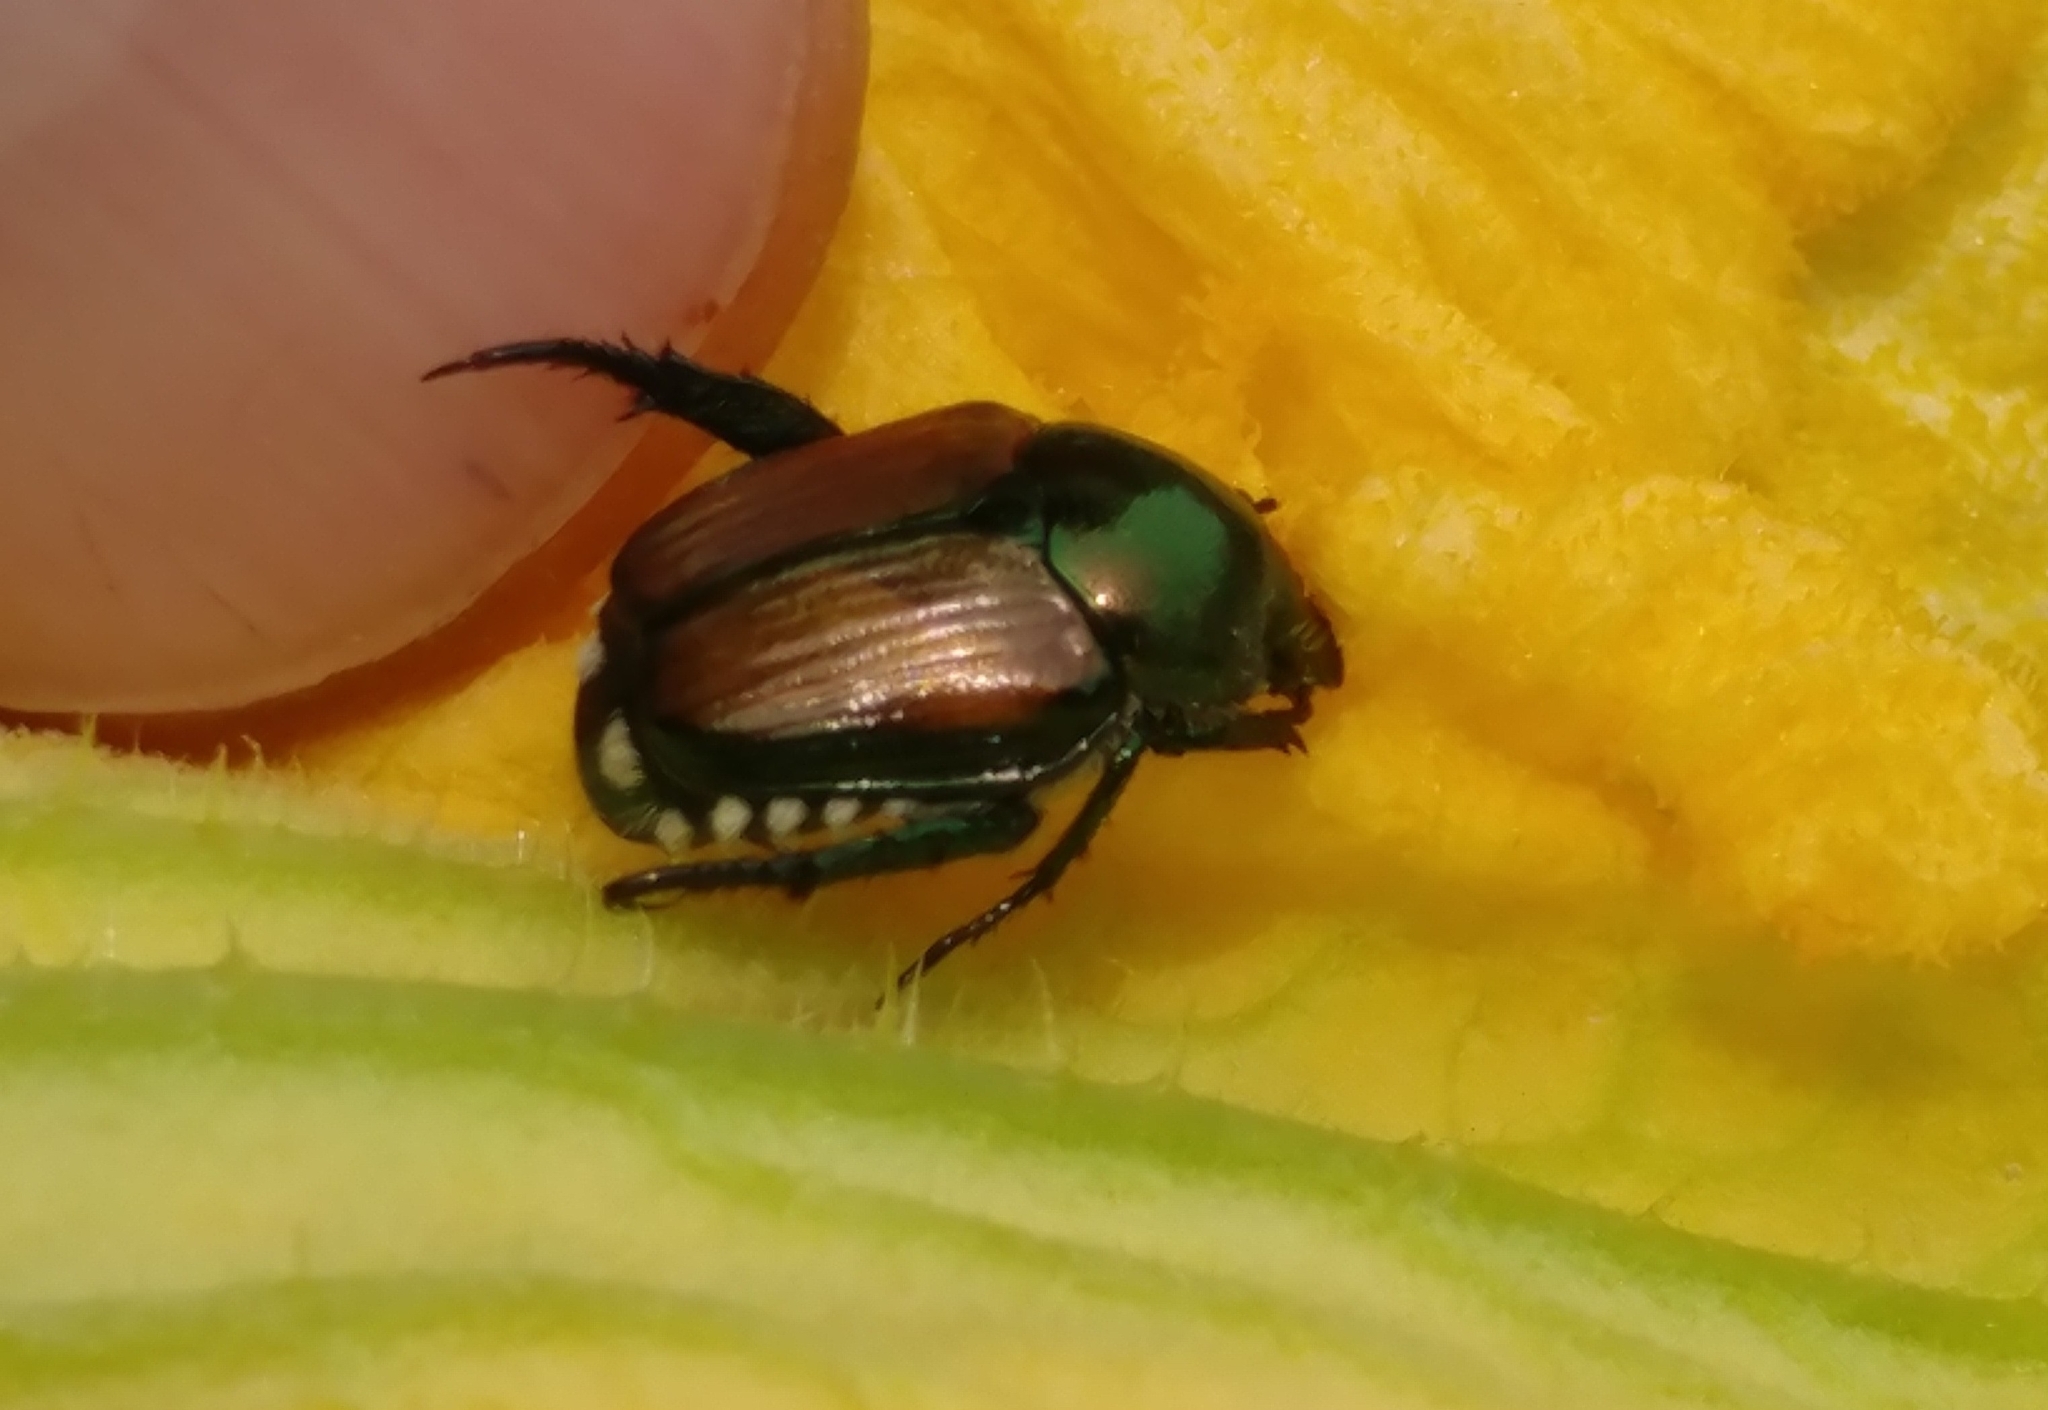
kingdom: Animalia
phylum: Arthropoda
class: Insecta
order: Coleoptera
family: Scarabaeidae
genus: Popillia
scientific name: Popillia japonica
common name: Japanese beetle
